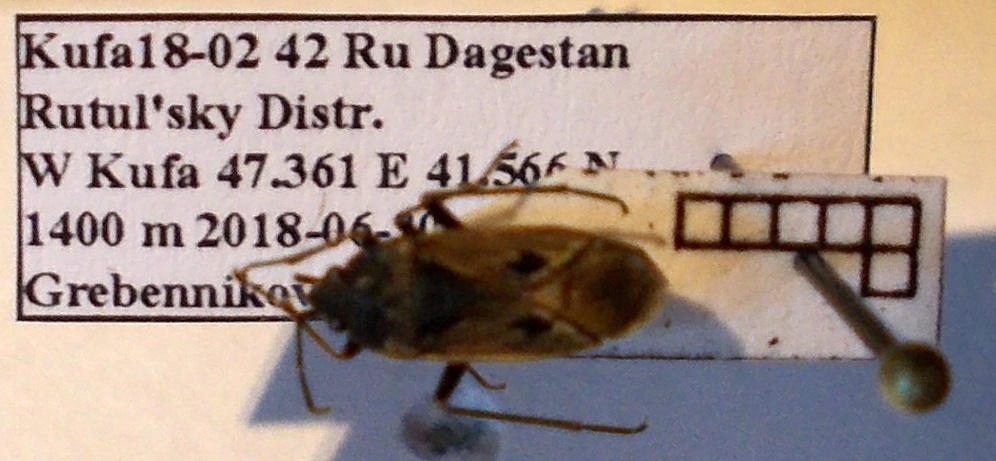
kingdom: Animalia
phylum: Arthropoda
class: Insecta
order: Hemiptera
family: Rhyparochromidae
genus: Rhyparochromus
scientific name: Rhyparochromus pini
